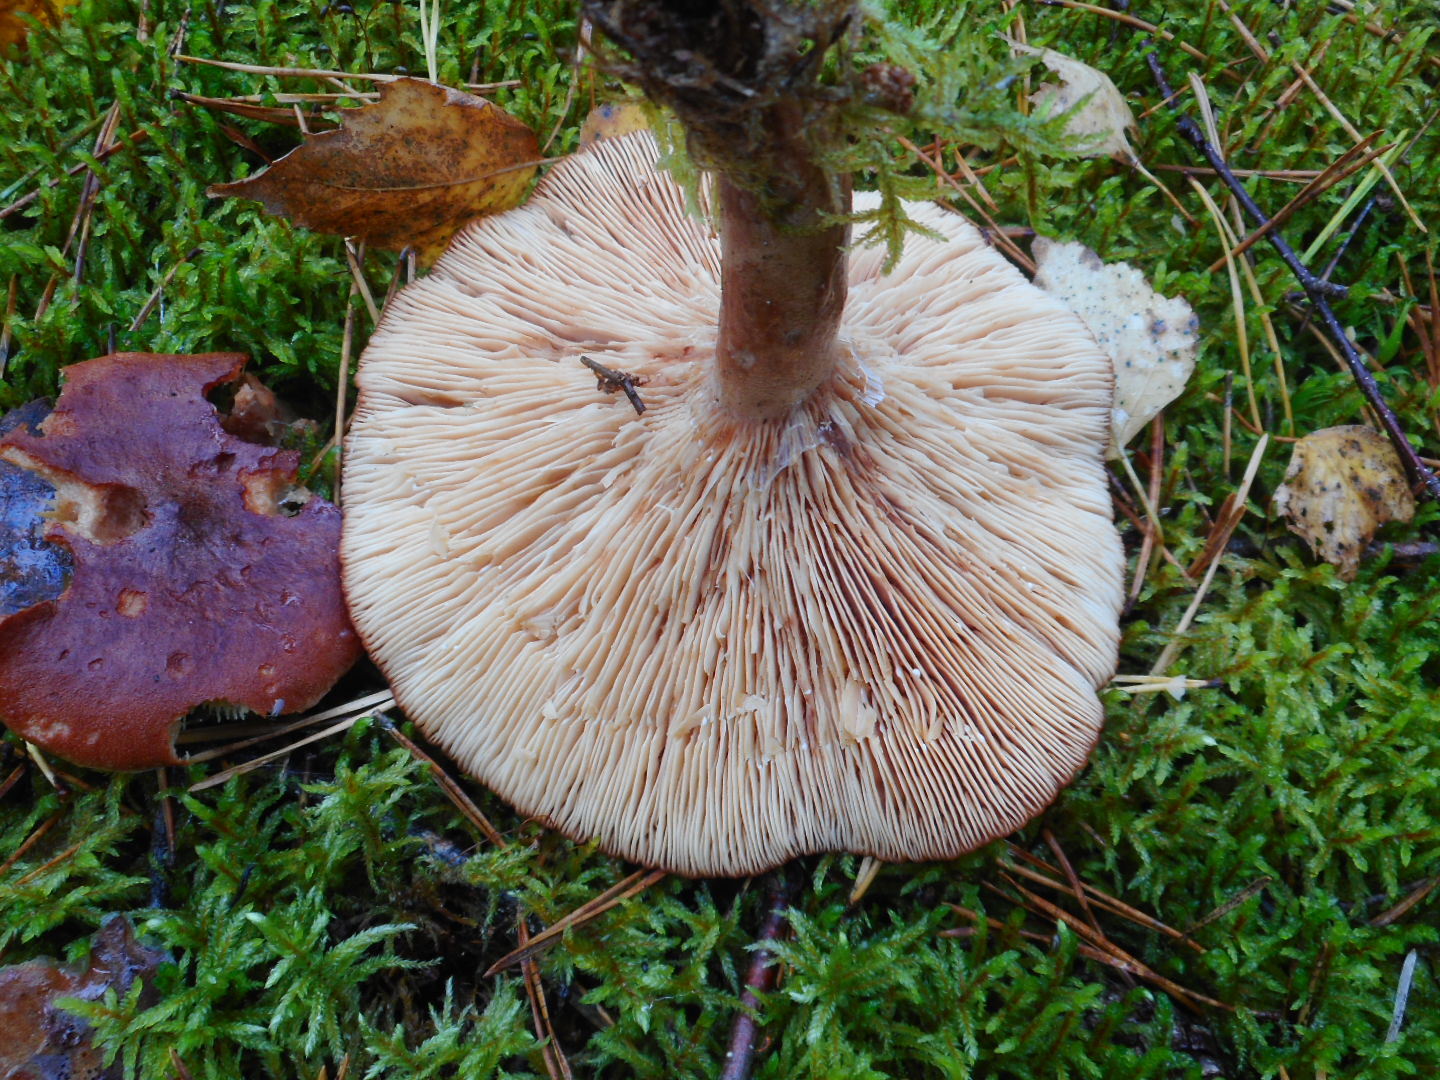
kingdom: Fungi
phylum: Basidiomycota
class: Agaricomycetes
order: Russulales
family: Russulaceae
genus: Lactarius
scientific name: Lactarius rufus
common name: Rufous milk-cap
